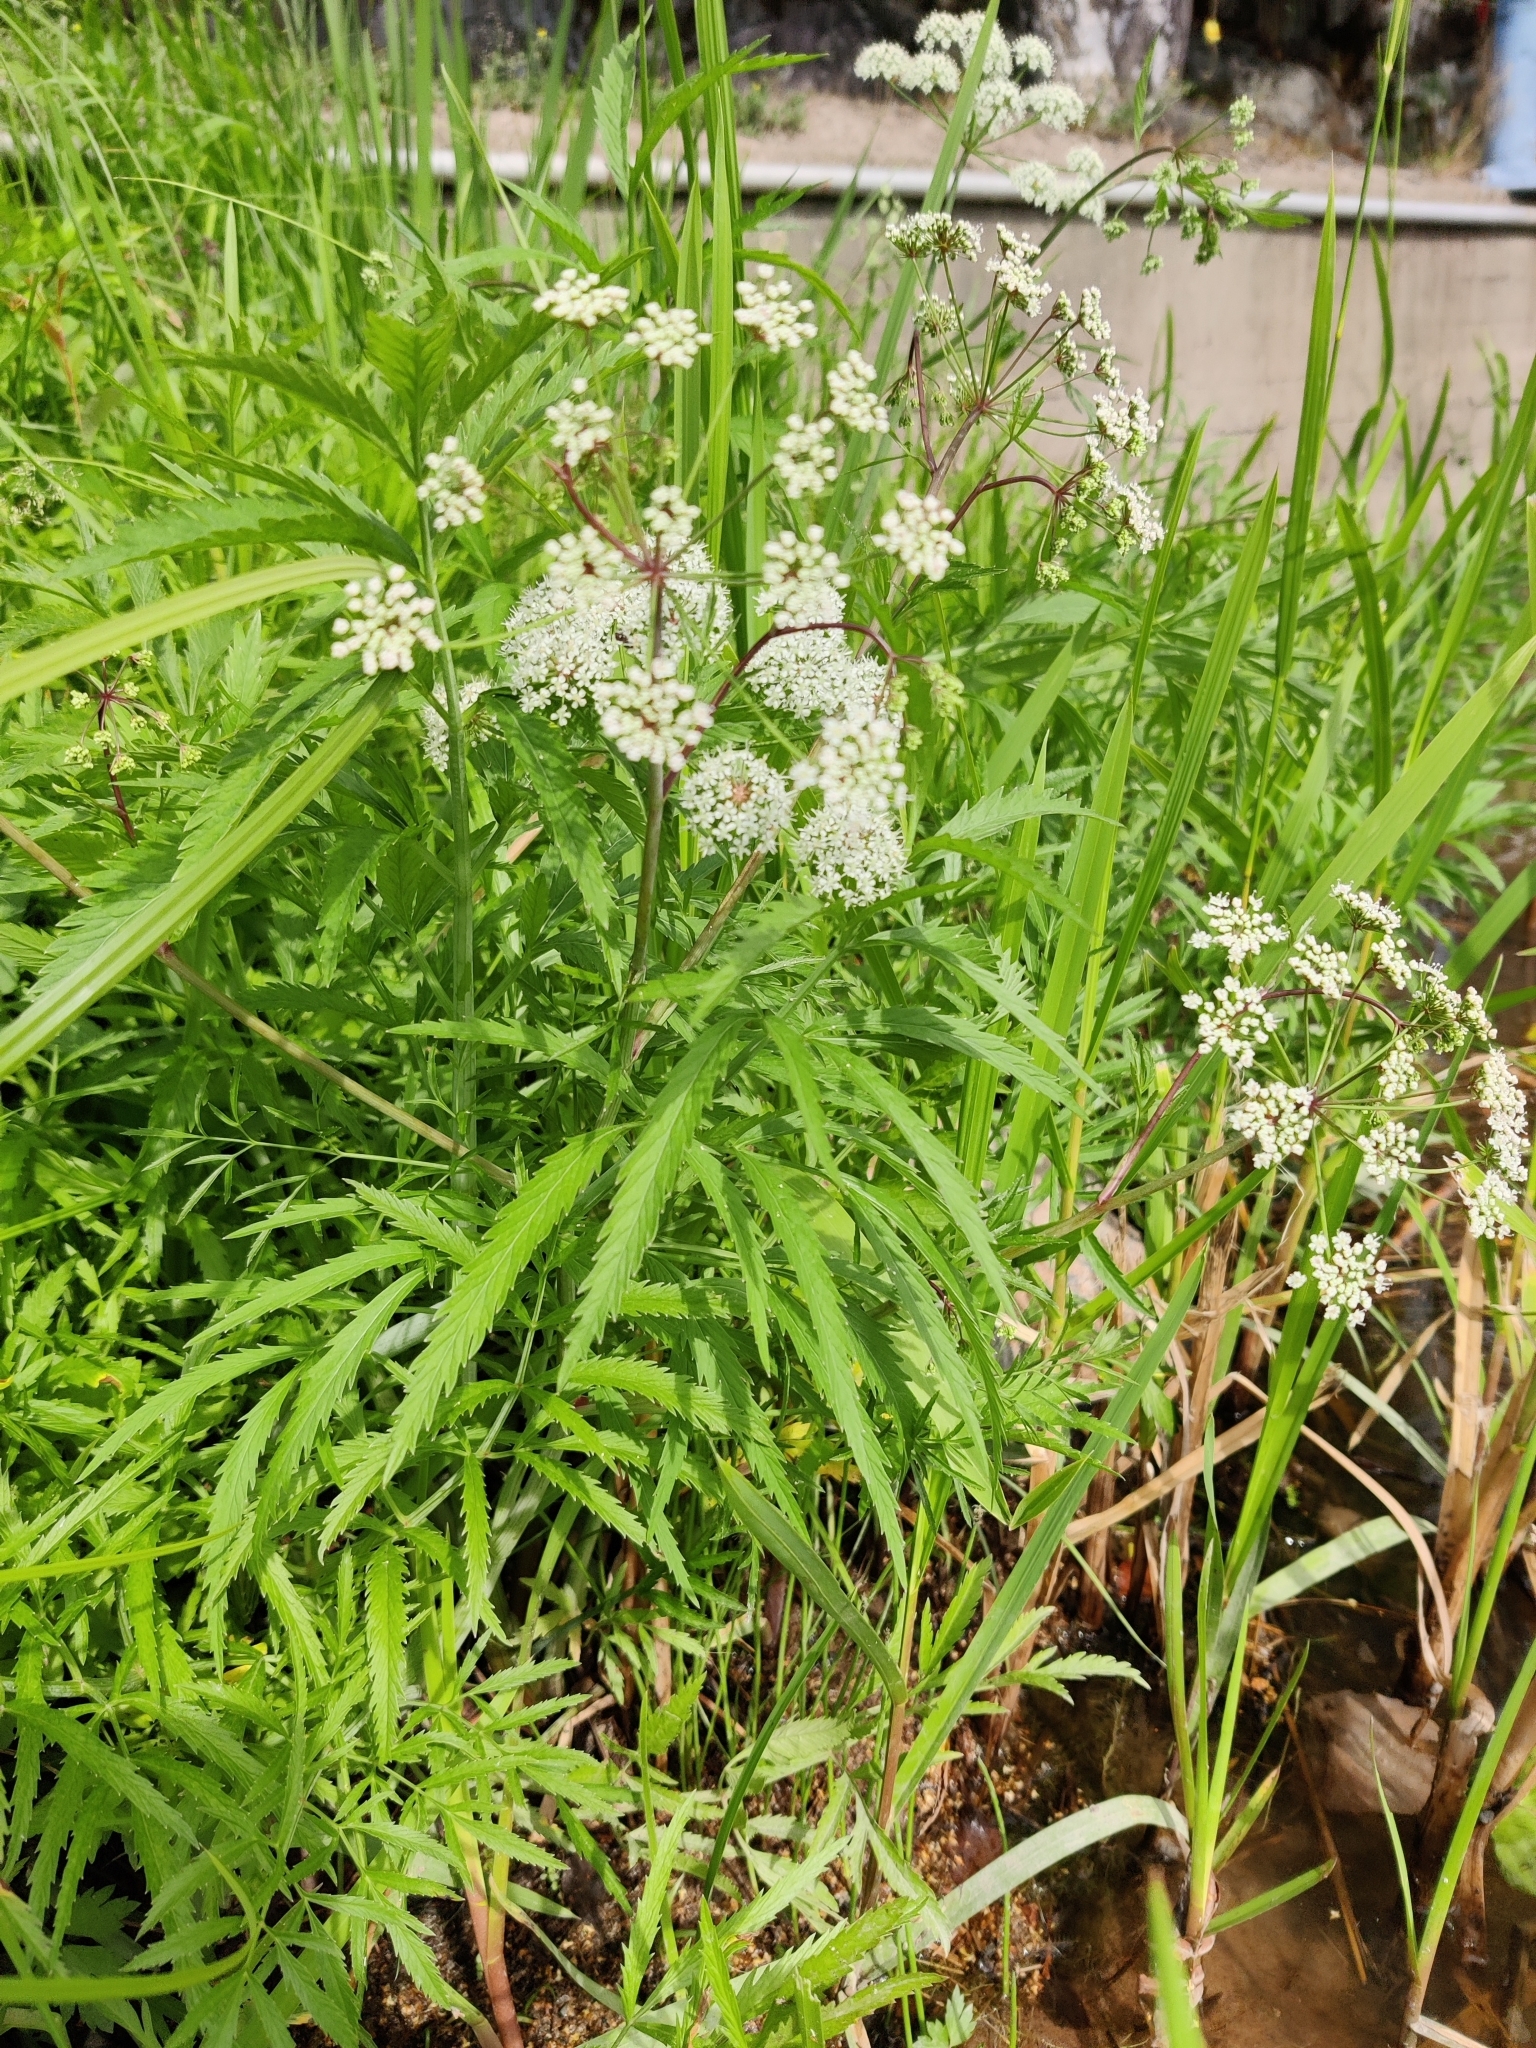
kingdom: Plantae
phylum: Tracheophyta
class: Magnoliopsida
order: Apiales
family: Apiaceae
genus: Cicuta
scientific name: Cicuta virosa
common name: Cowbane
